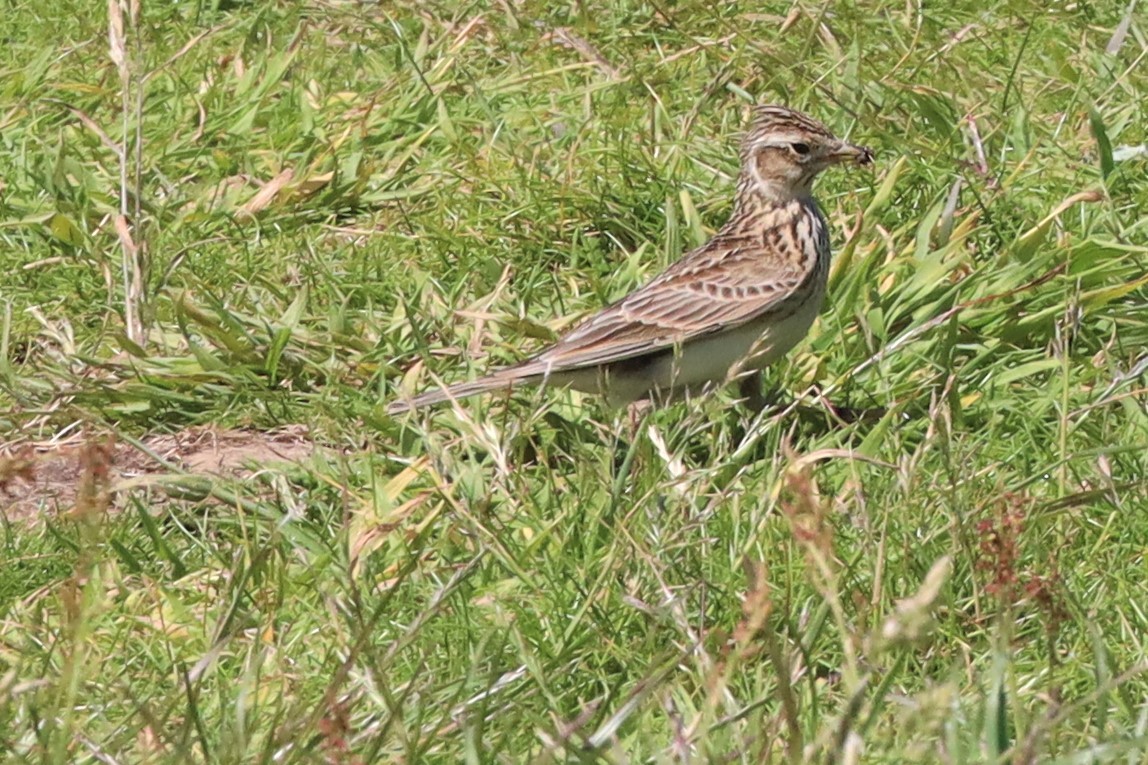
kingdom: Animalia
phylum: Chordata
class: Aves
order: Passeriformes
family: Alaudidae
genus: Alauda
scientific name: Alauda arvensis
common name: Eurasian skylark
